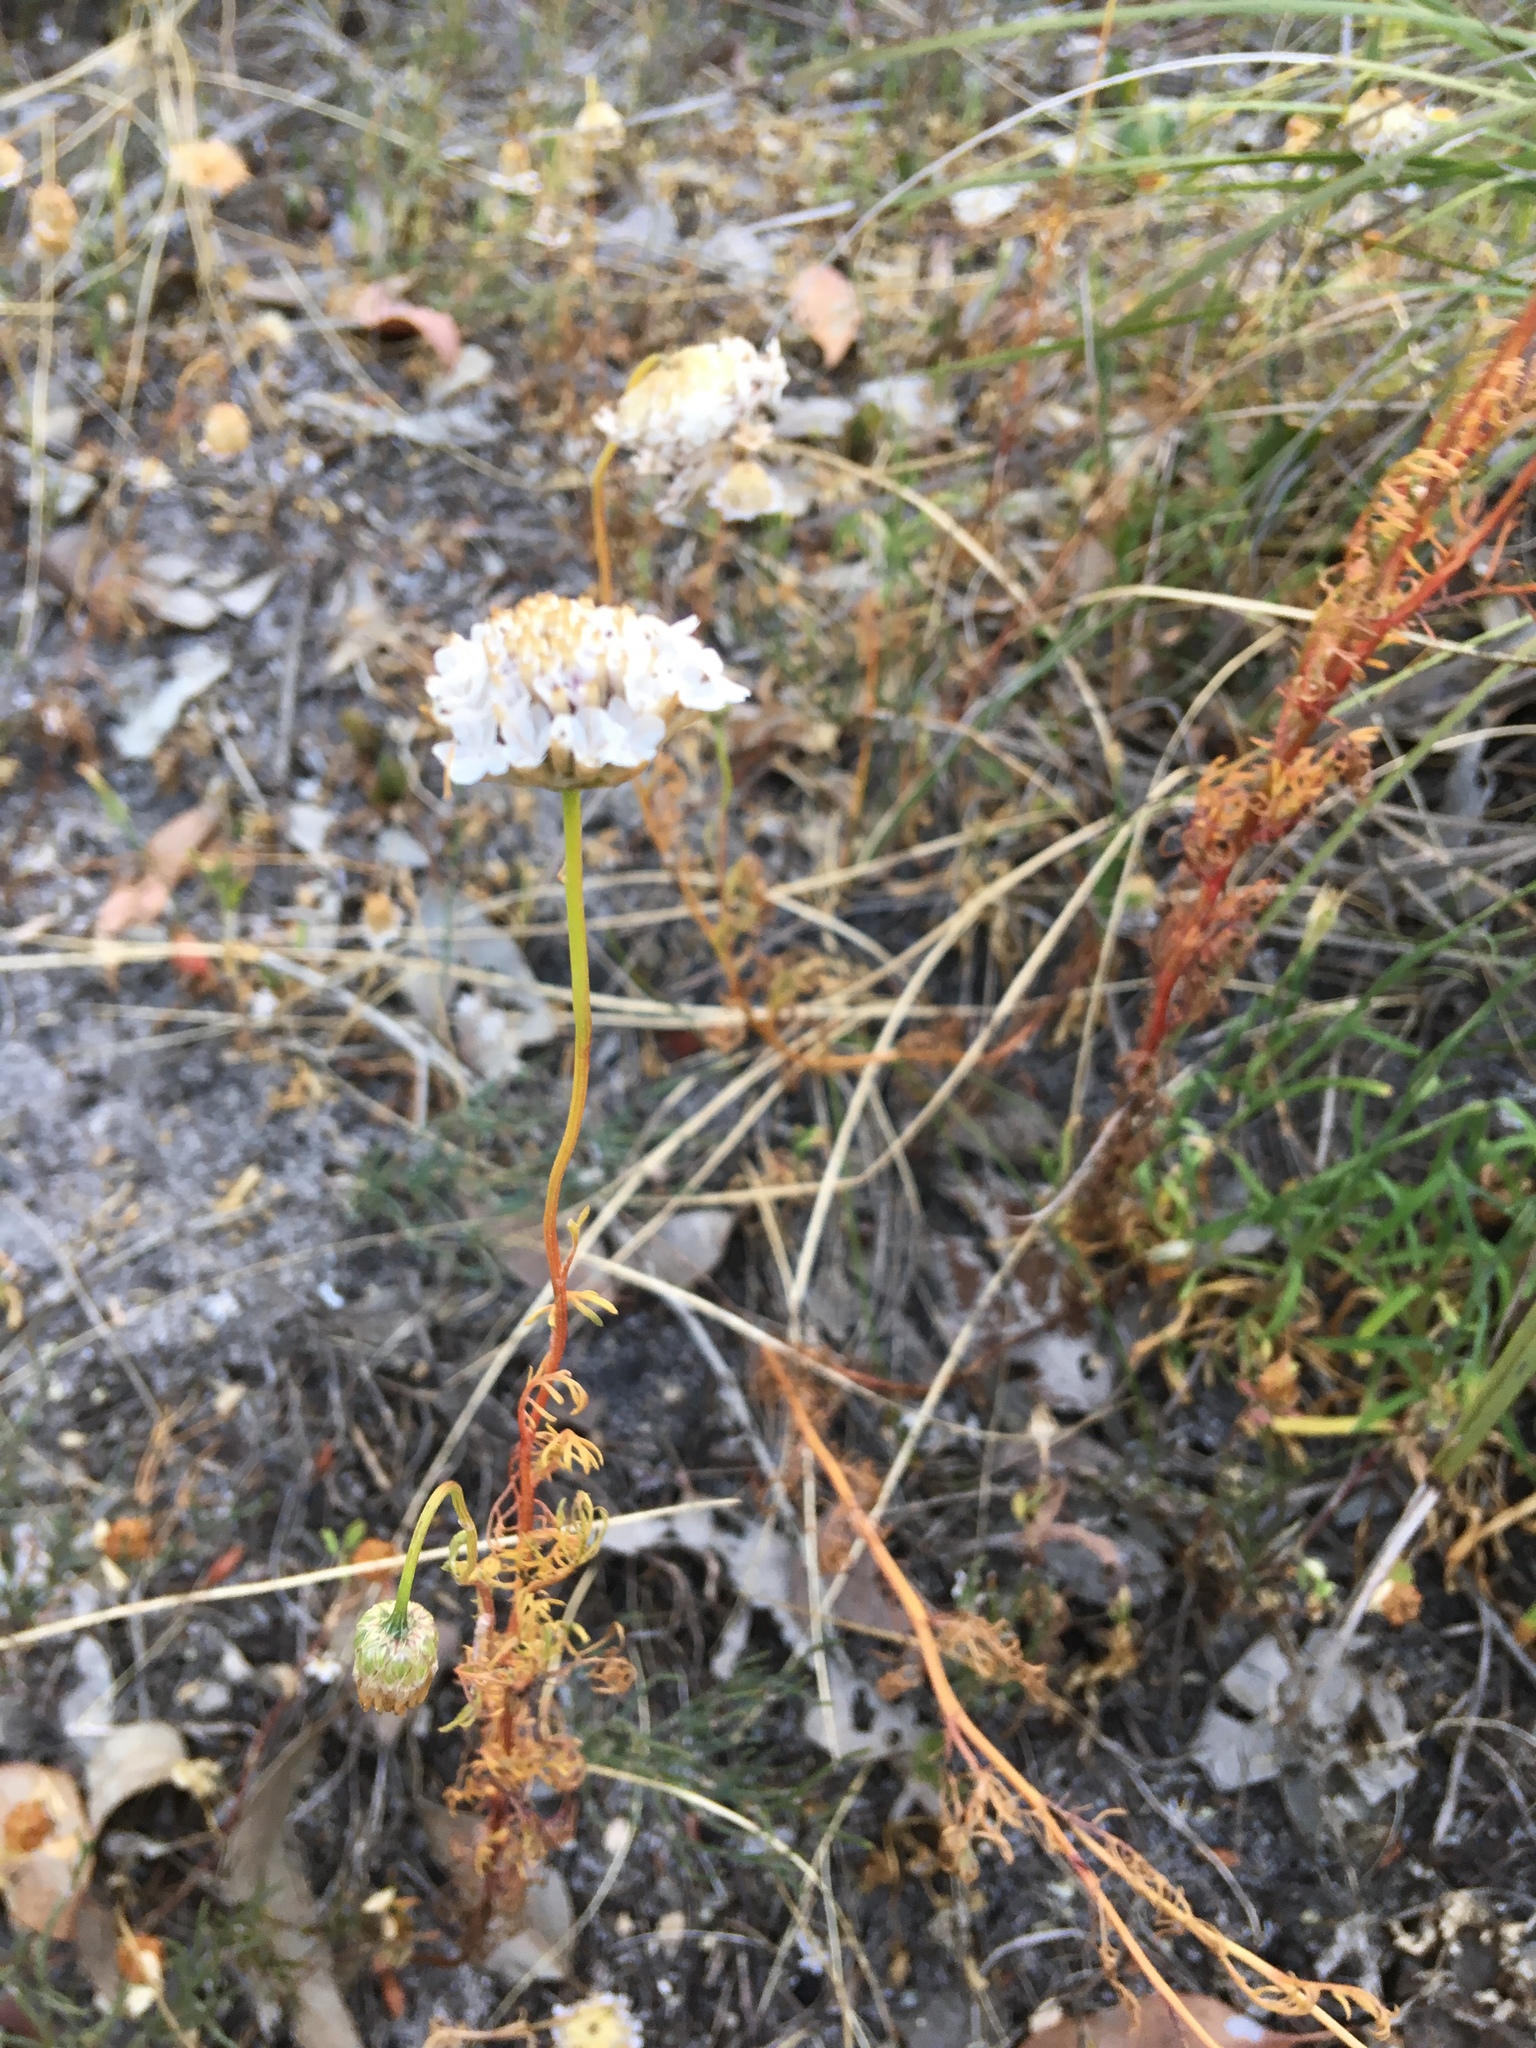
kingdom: Plantae
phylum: Tracheophyta
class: Magnoliopsida
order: Asterales
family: Asteraceae
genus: Ursinia
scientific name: Ursinia anthemoides
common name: Ursinia
